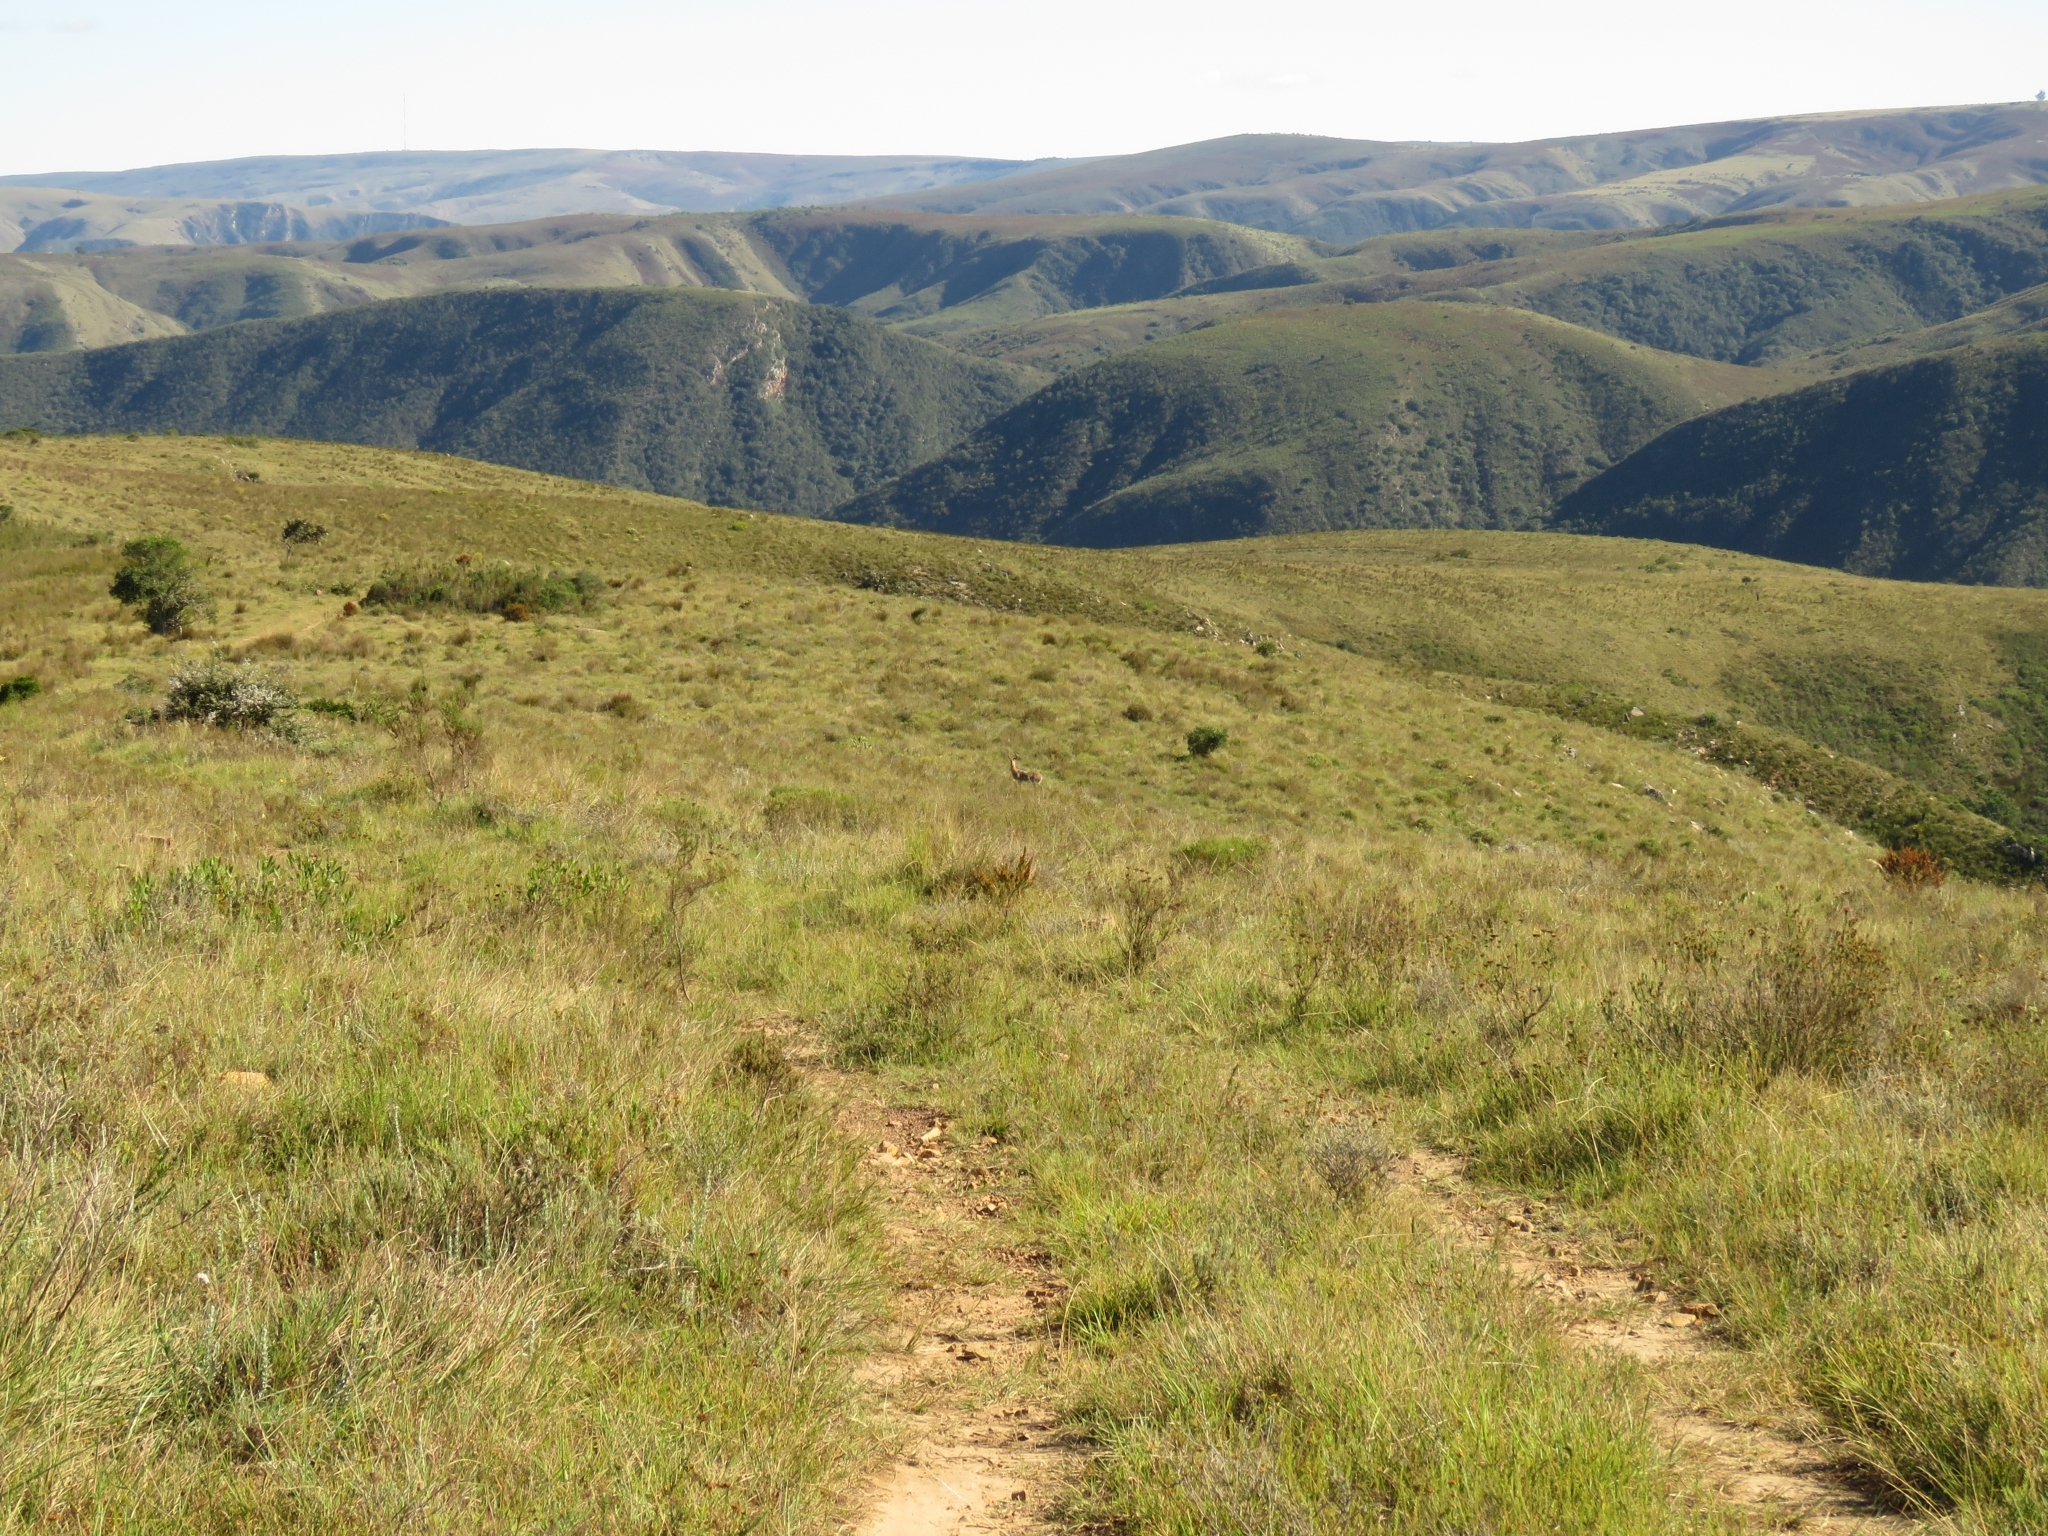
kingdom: Animalia
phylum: Chordata
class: Mammalia
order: Artiodactyla
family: Bovidae
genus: Redunca
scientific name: Redunca fulvorufula
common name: Mountain reedbuck
